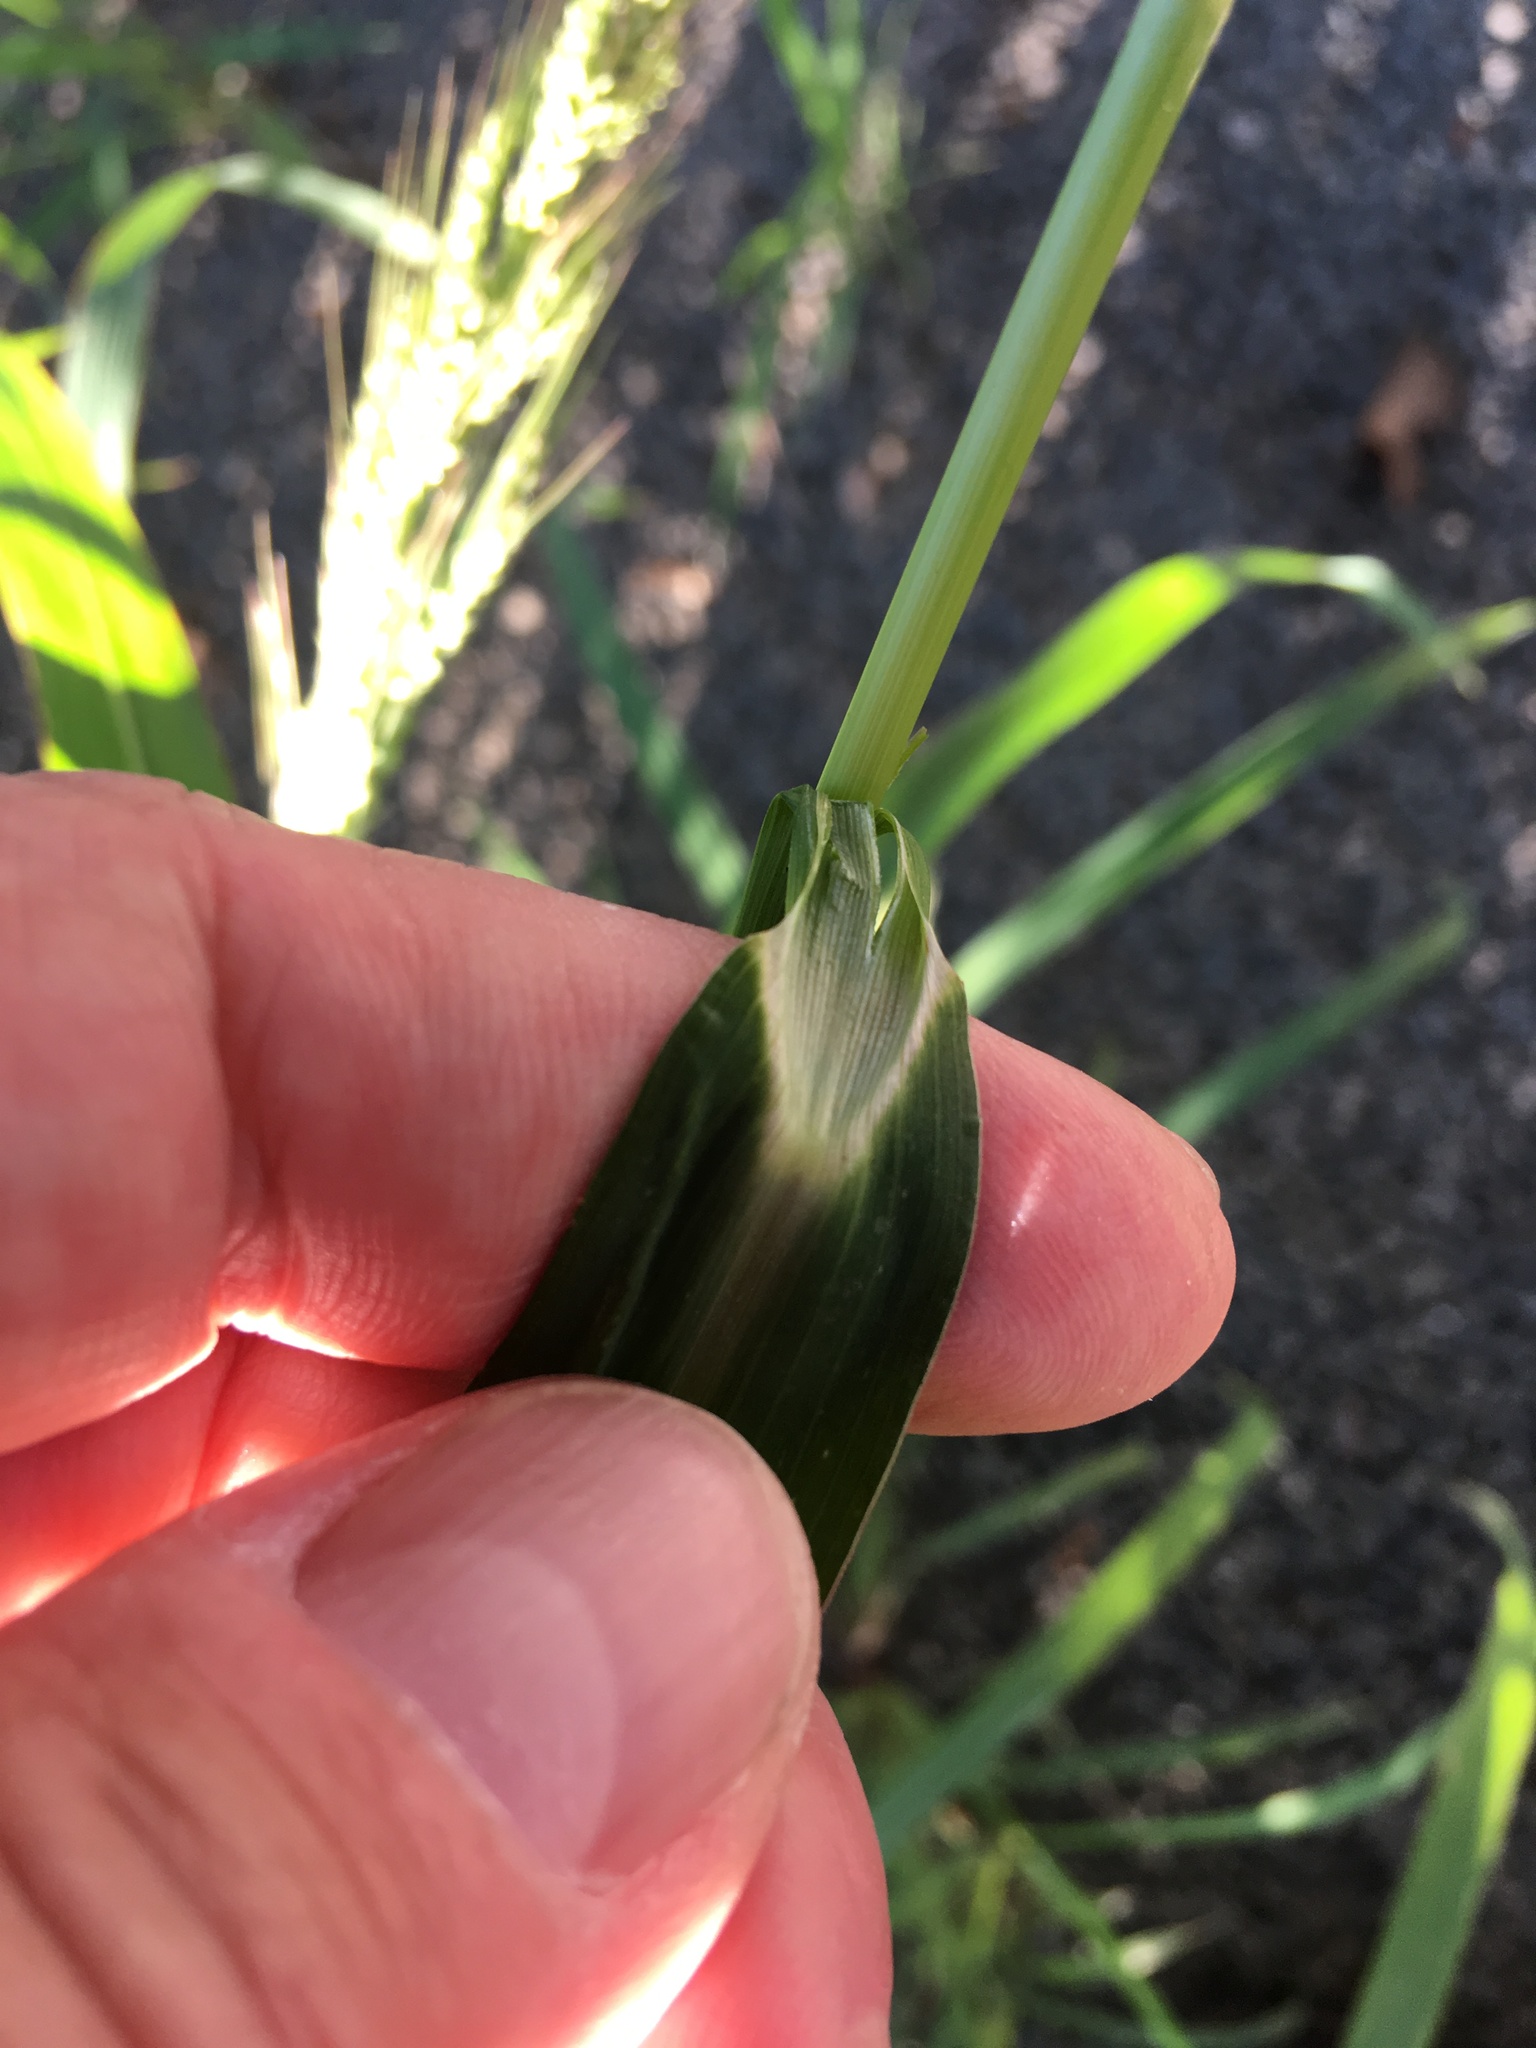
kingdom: Plantae
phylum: Tracheophyta
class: Liliopsida
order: Poales
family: Poaceae
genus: Echinochloa
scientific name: Echinochloa crus-galli
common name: Cockspur
